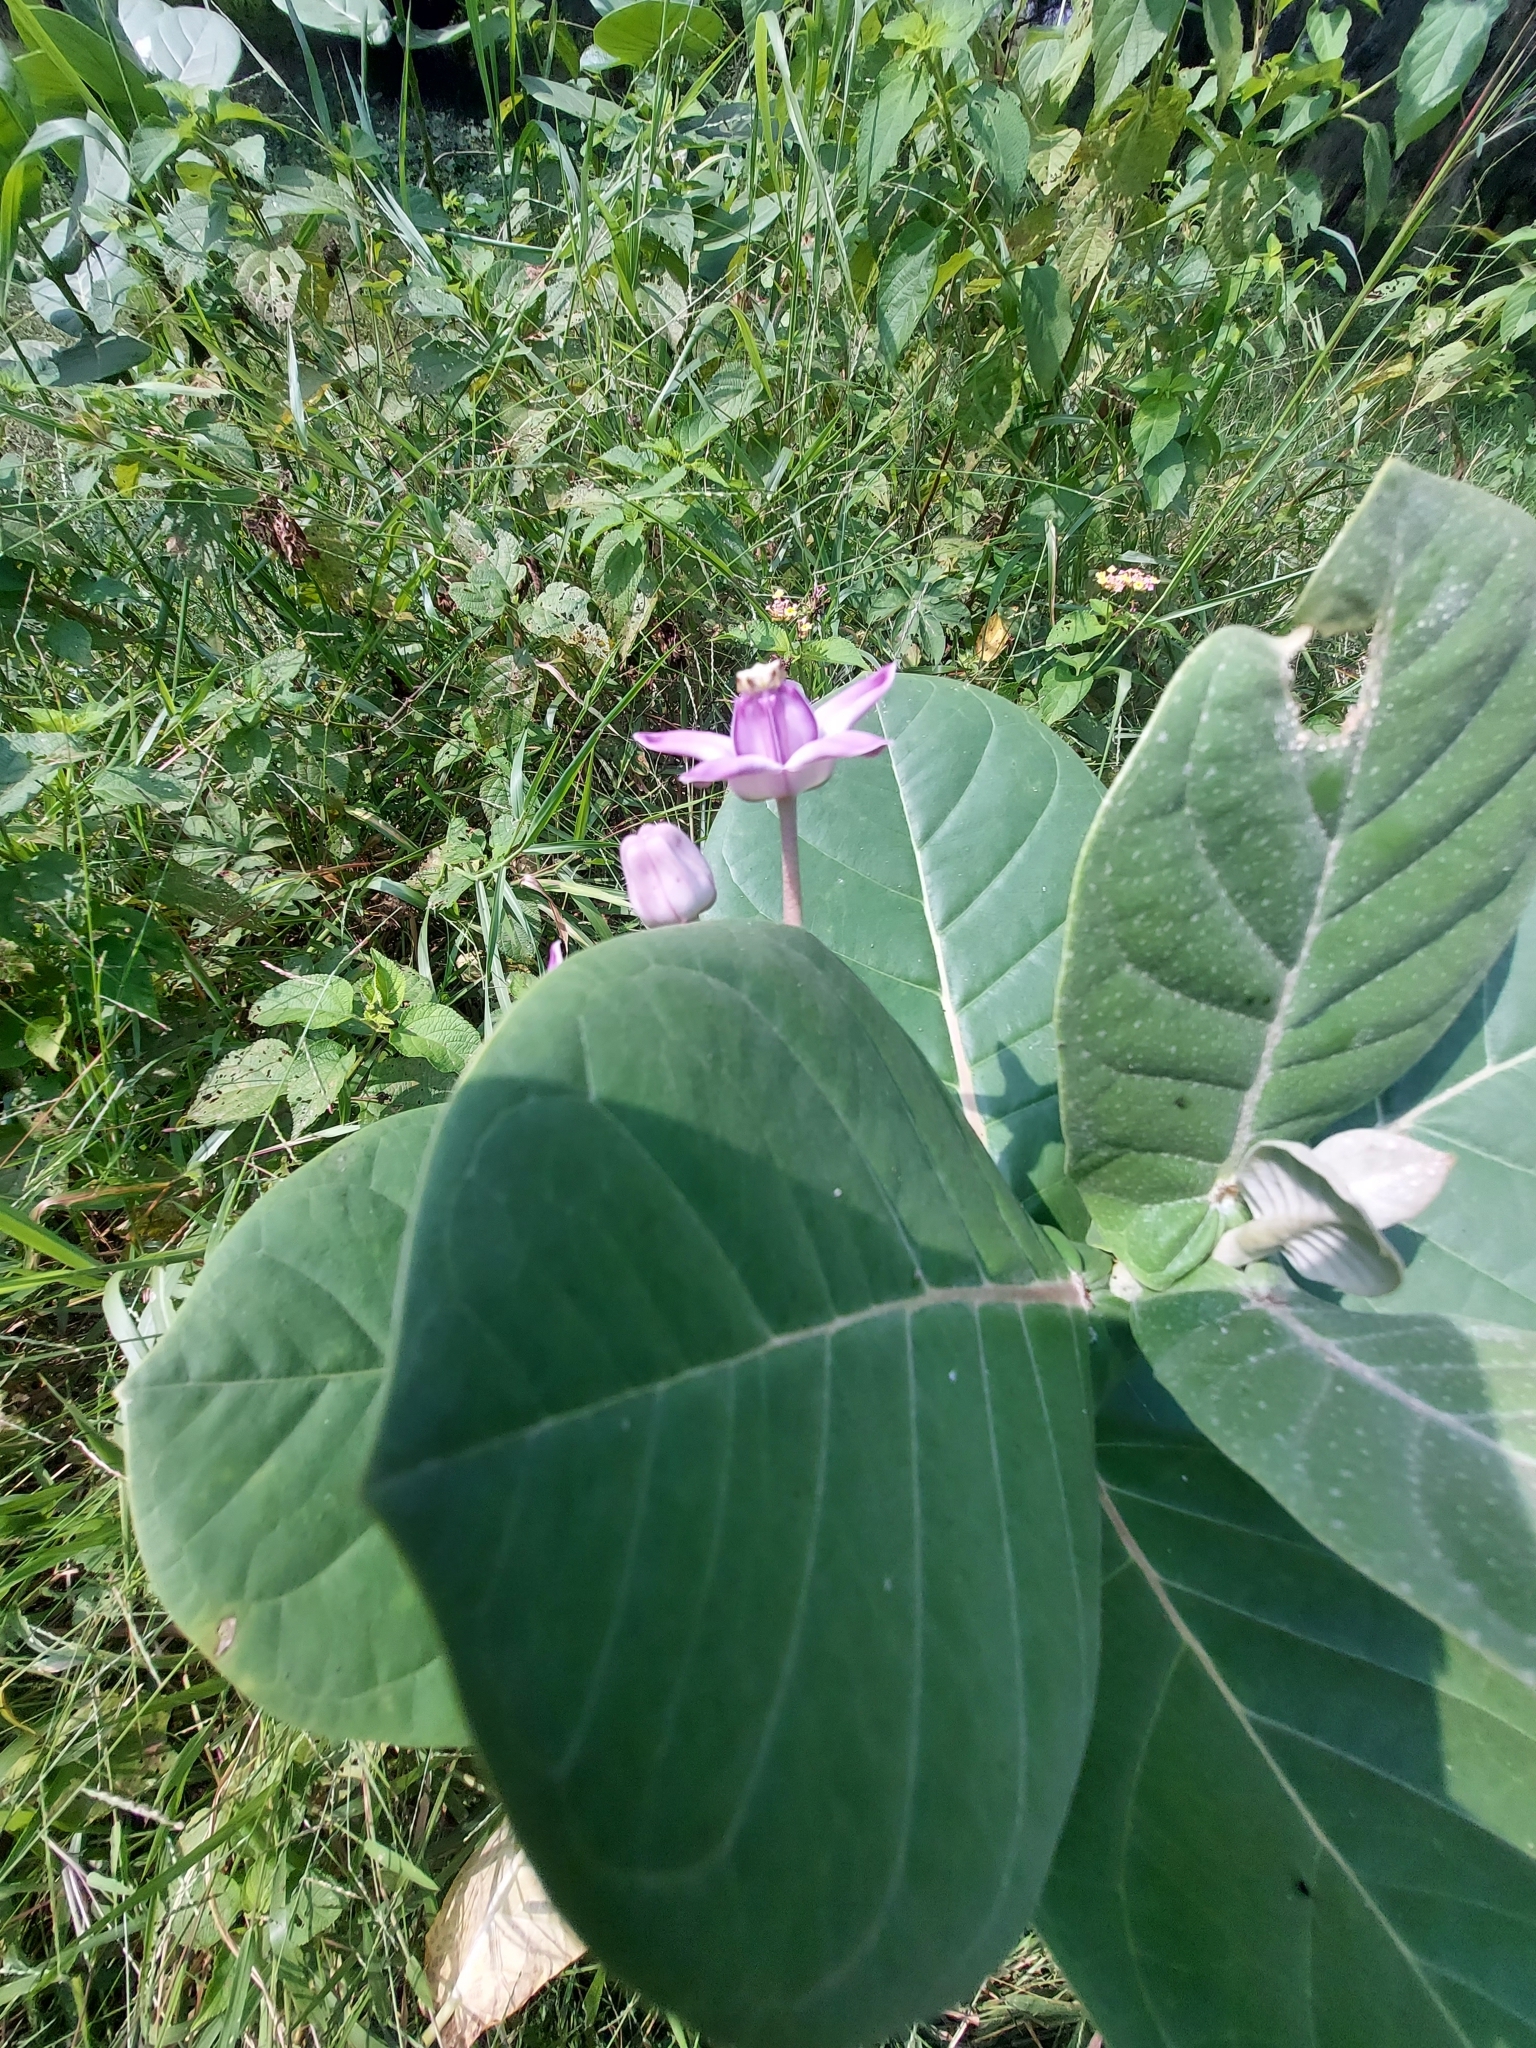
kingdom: Plantae
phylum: Tracheophyta
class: Magnoliopsida
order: Gentianales
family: Apocynaceae
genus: Calotropis
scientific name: Calotropis gigantea
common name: Crown flower
